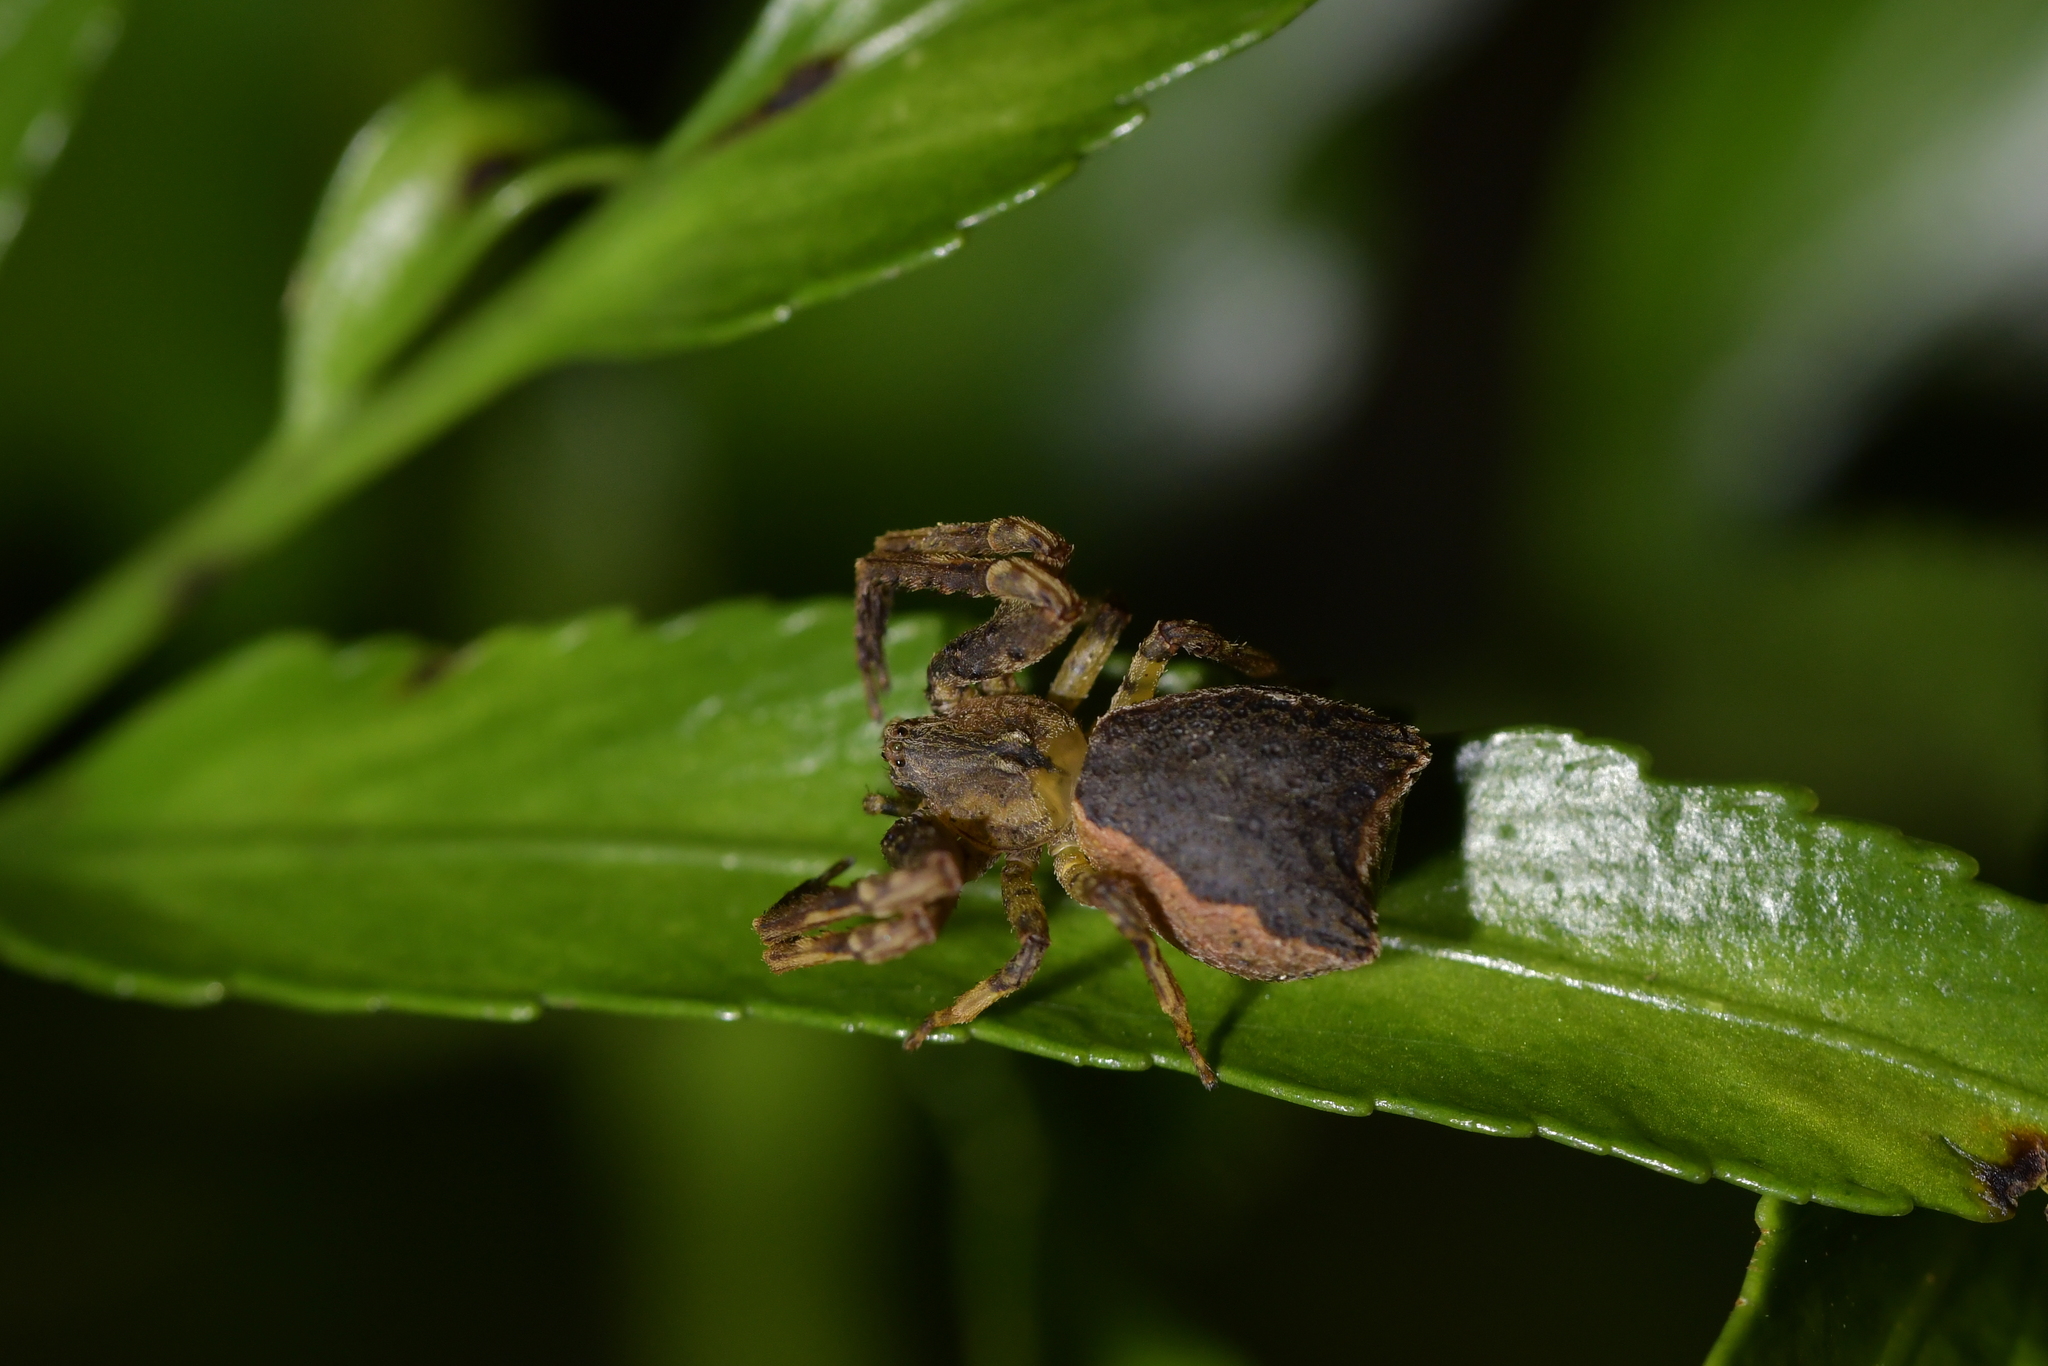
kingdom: Animalia
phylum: Arthropoda
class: Arachnida
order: Araneae
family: Thomisidae
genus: Sidymella
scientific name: Sidymella angularis
